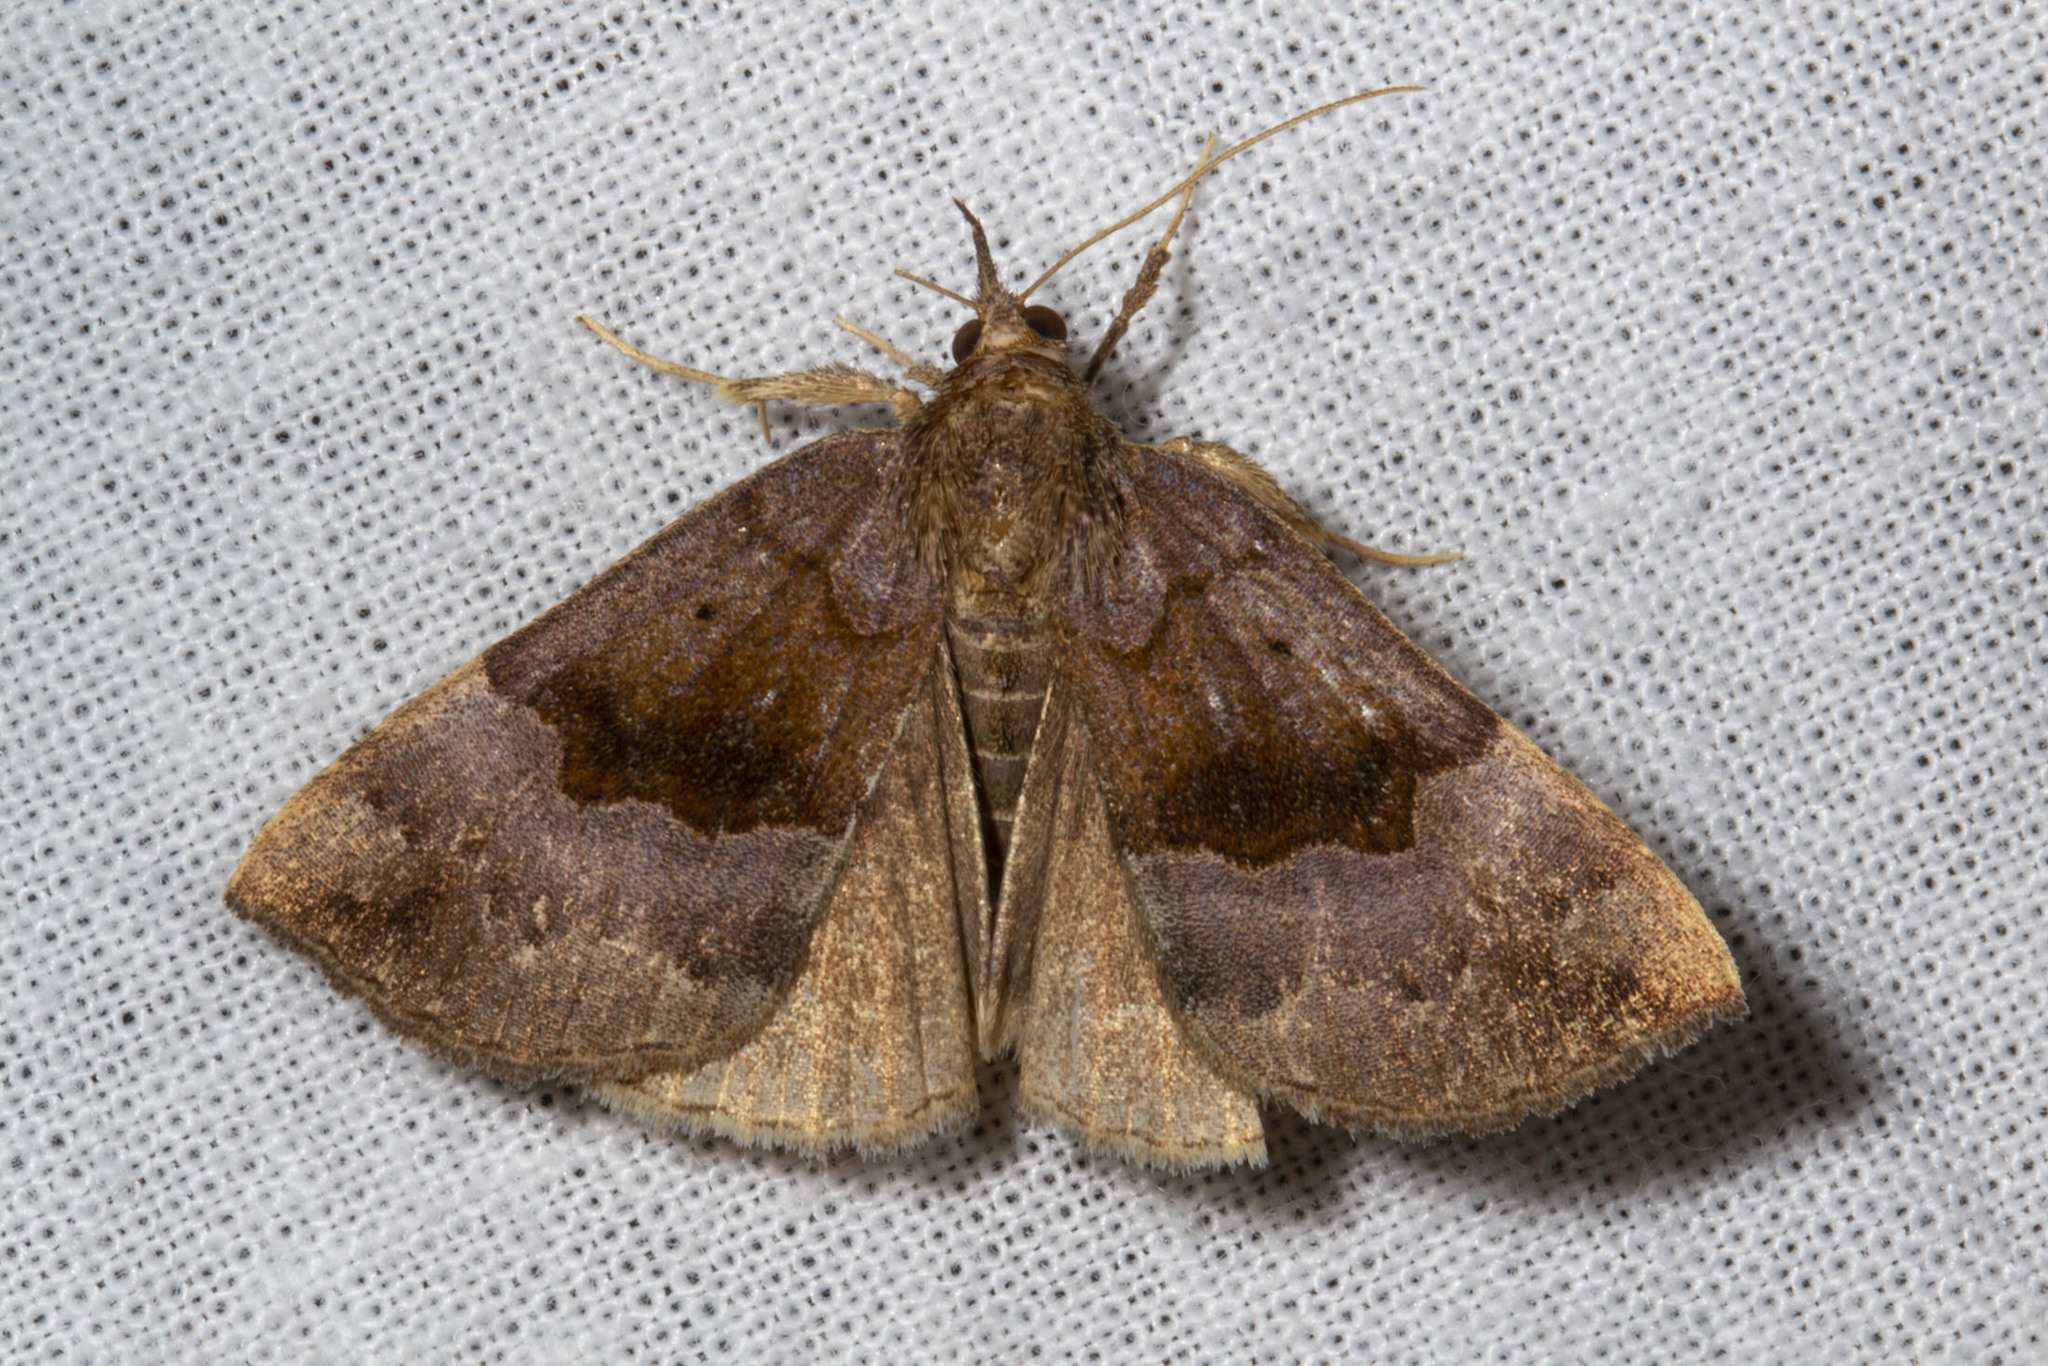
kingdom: Animalia
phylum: Arthropoda
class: Insecta
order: Lepidoptera
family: Erebidae
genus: Hypena
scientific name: Hypena madefactalis
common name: Gray-edged snout
